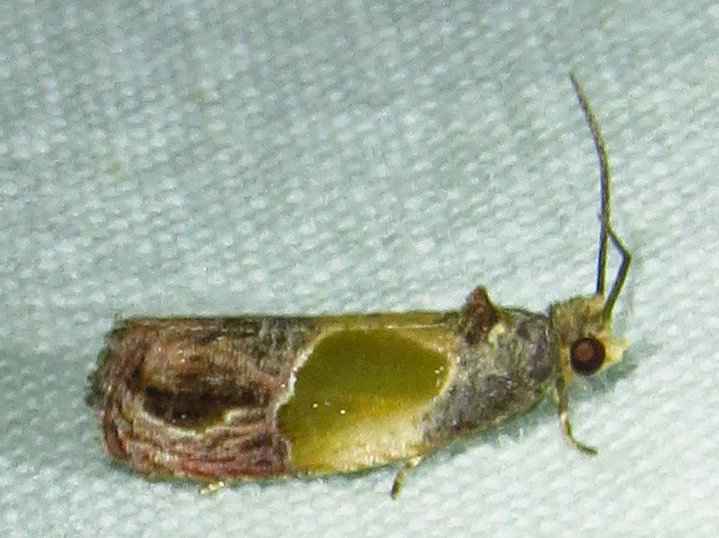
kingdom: Animalia
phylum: Arthropoda
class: Insecta
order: Lepidoptera
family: Tortricidae
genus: Eumarozia
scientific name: Eumarozia malachitana
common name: Sculptured moth
